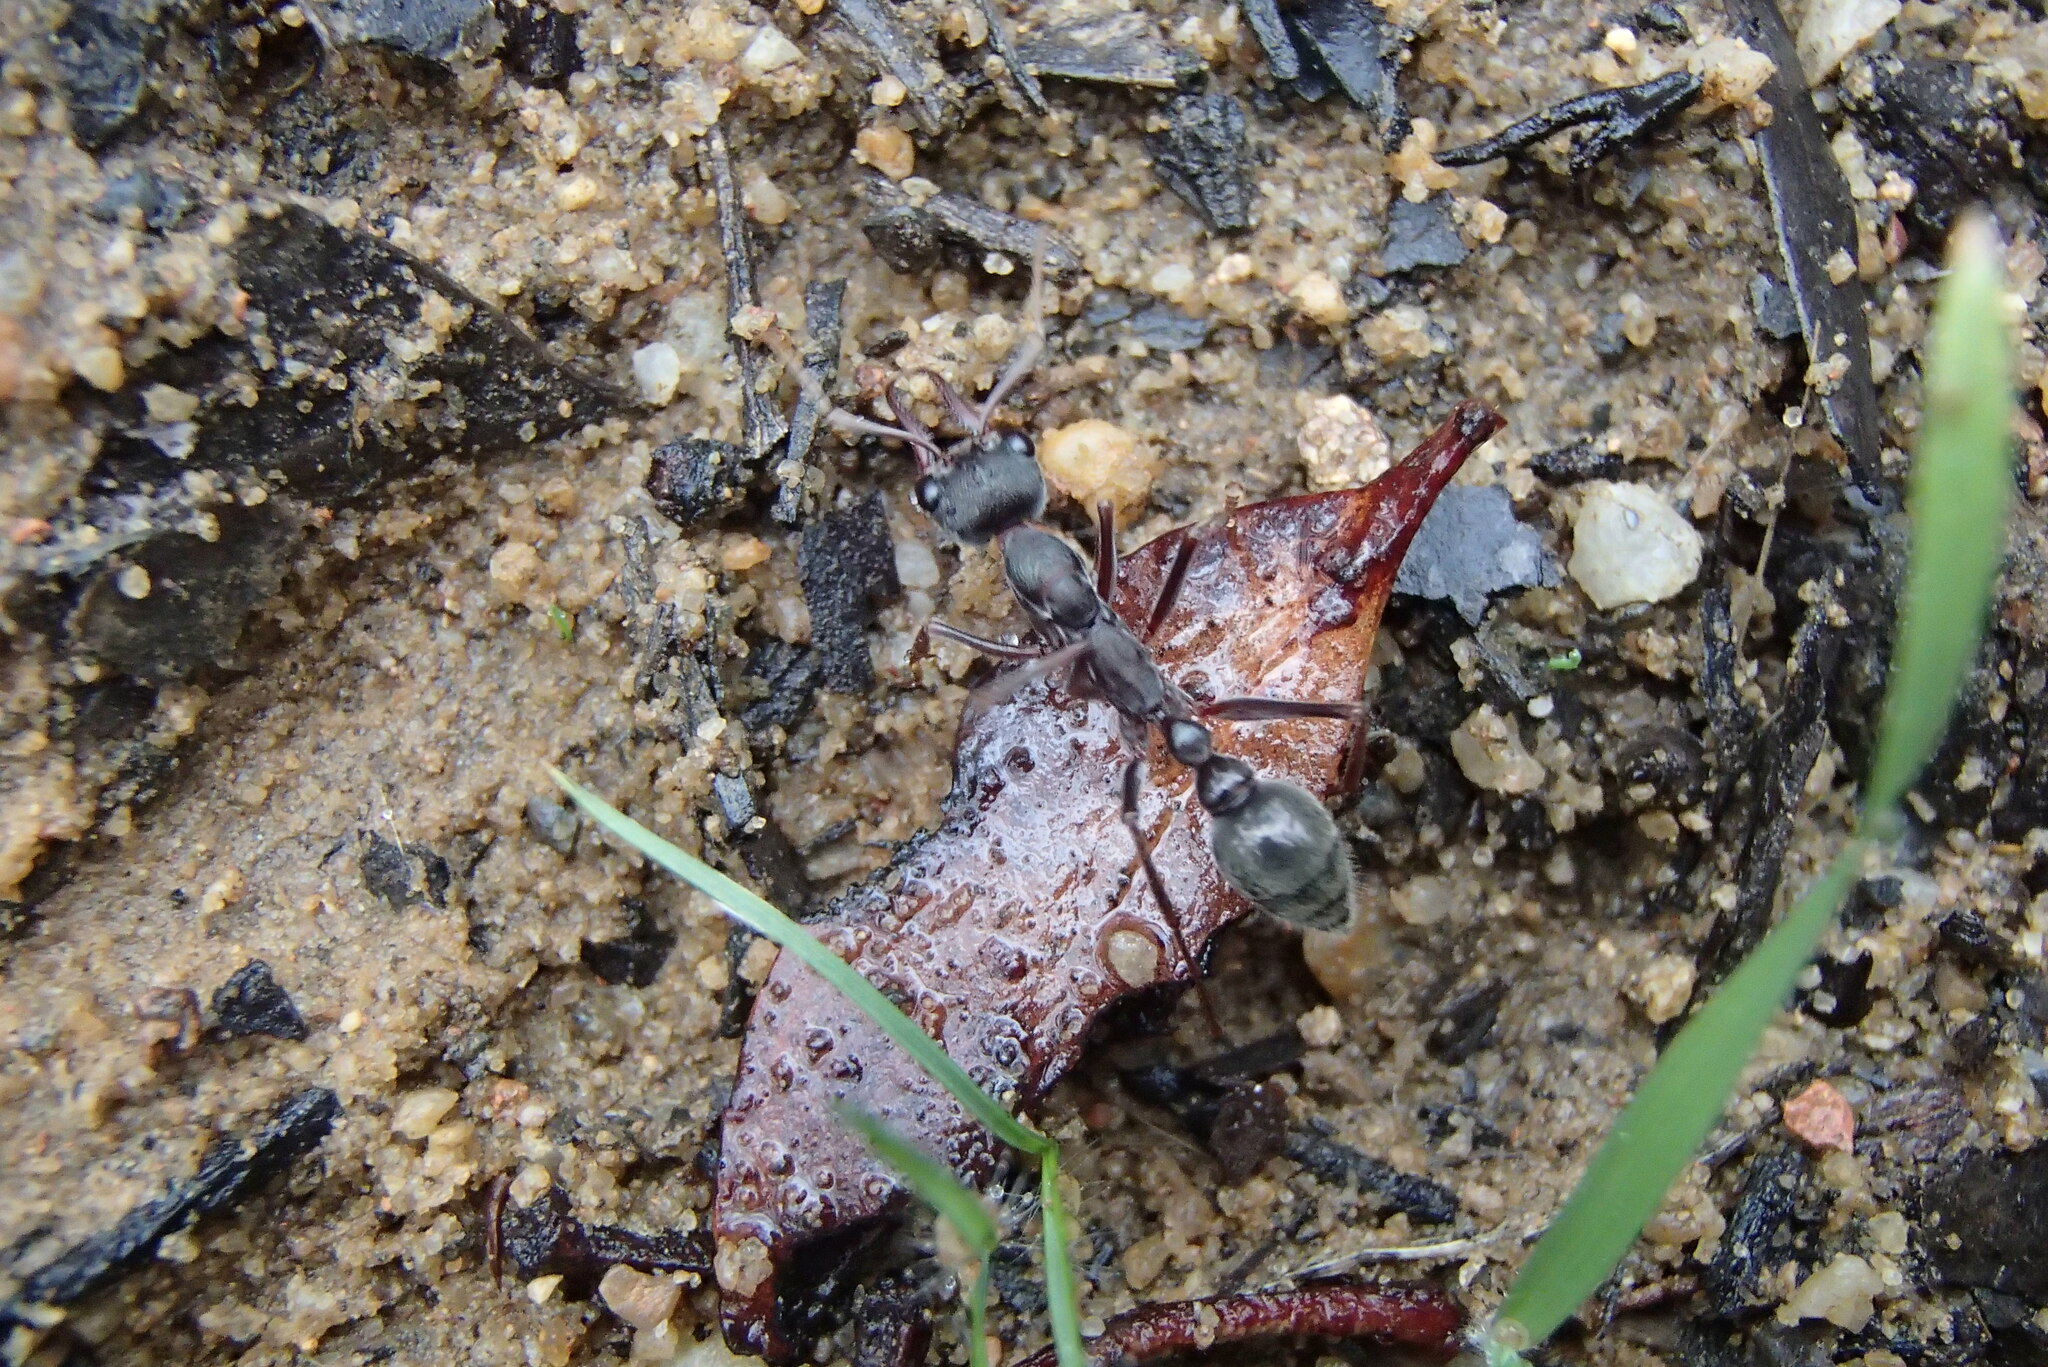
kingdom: Animalia
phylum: Arthropoda
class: Insecta
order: Hymenoptera
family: Formicidae
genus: Myrmecia
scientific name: Myrmecia pyriformis
